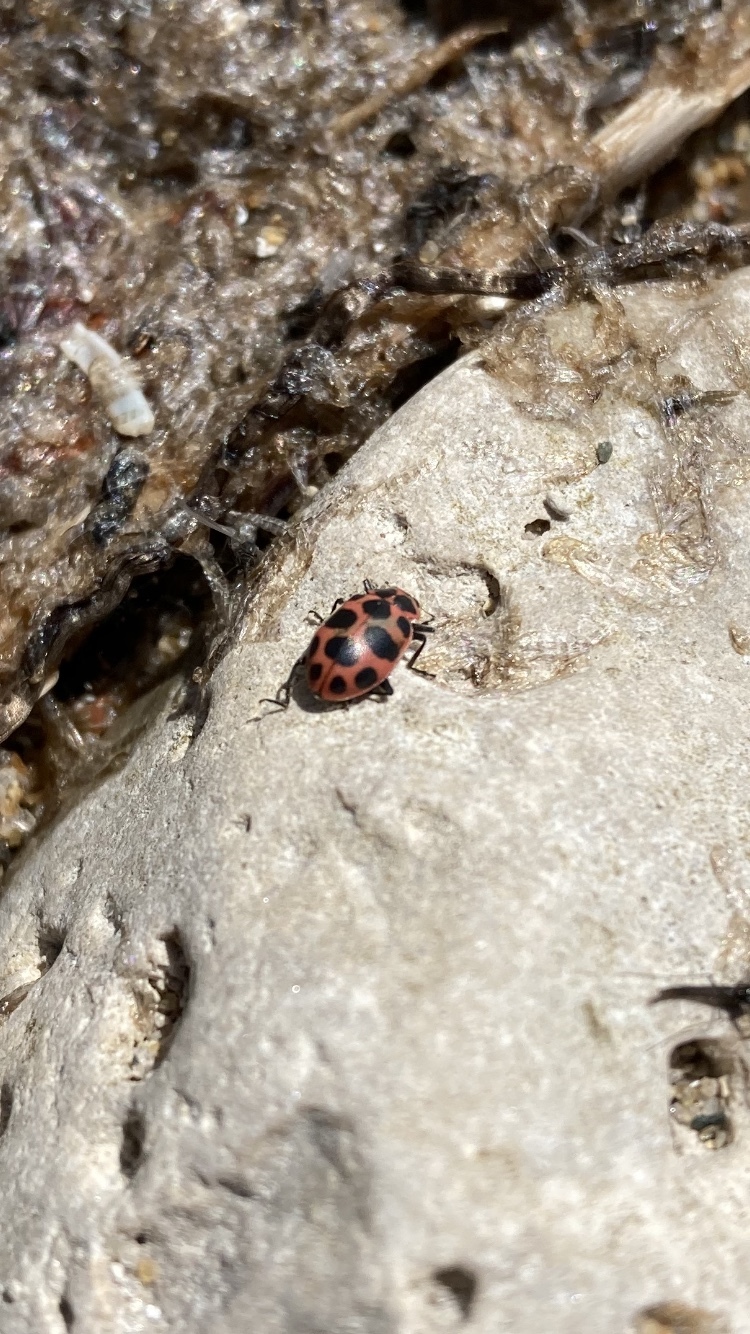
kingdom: Animalia
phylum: Arthropoda
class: Insecta
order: Coleoptera
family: Coccinellidae
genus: Coleomegilla
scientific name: Coleomegilla maculata
